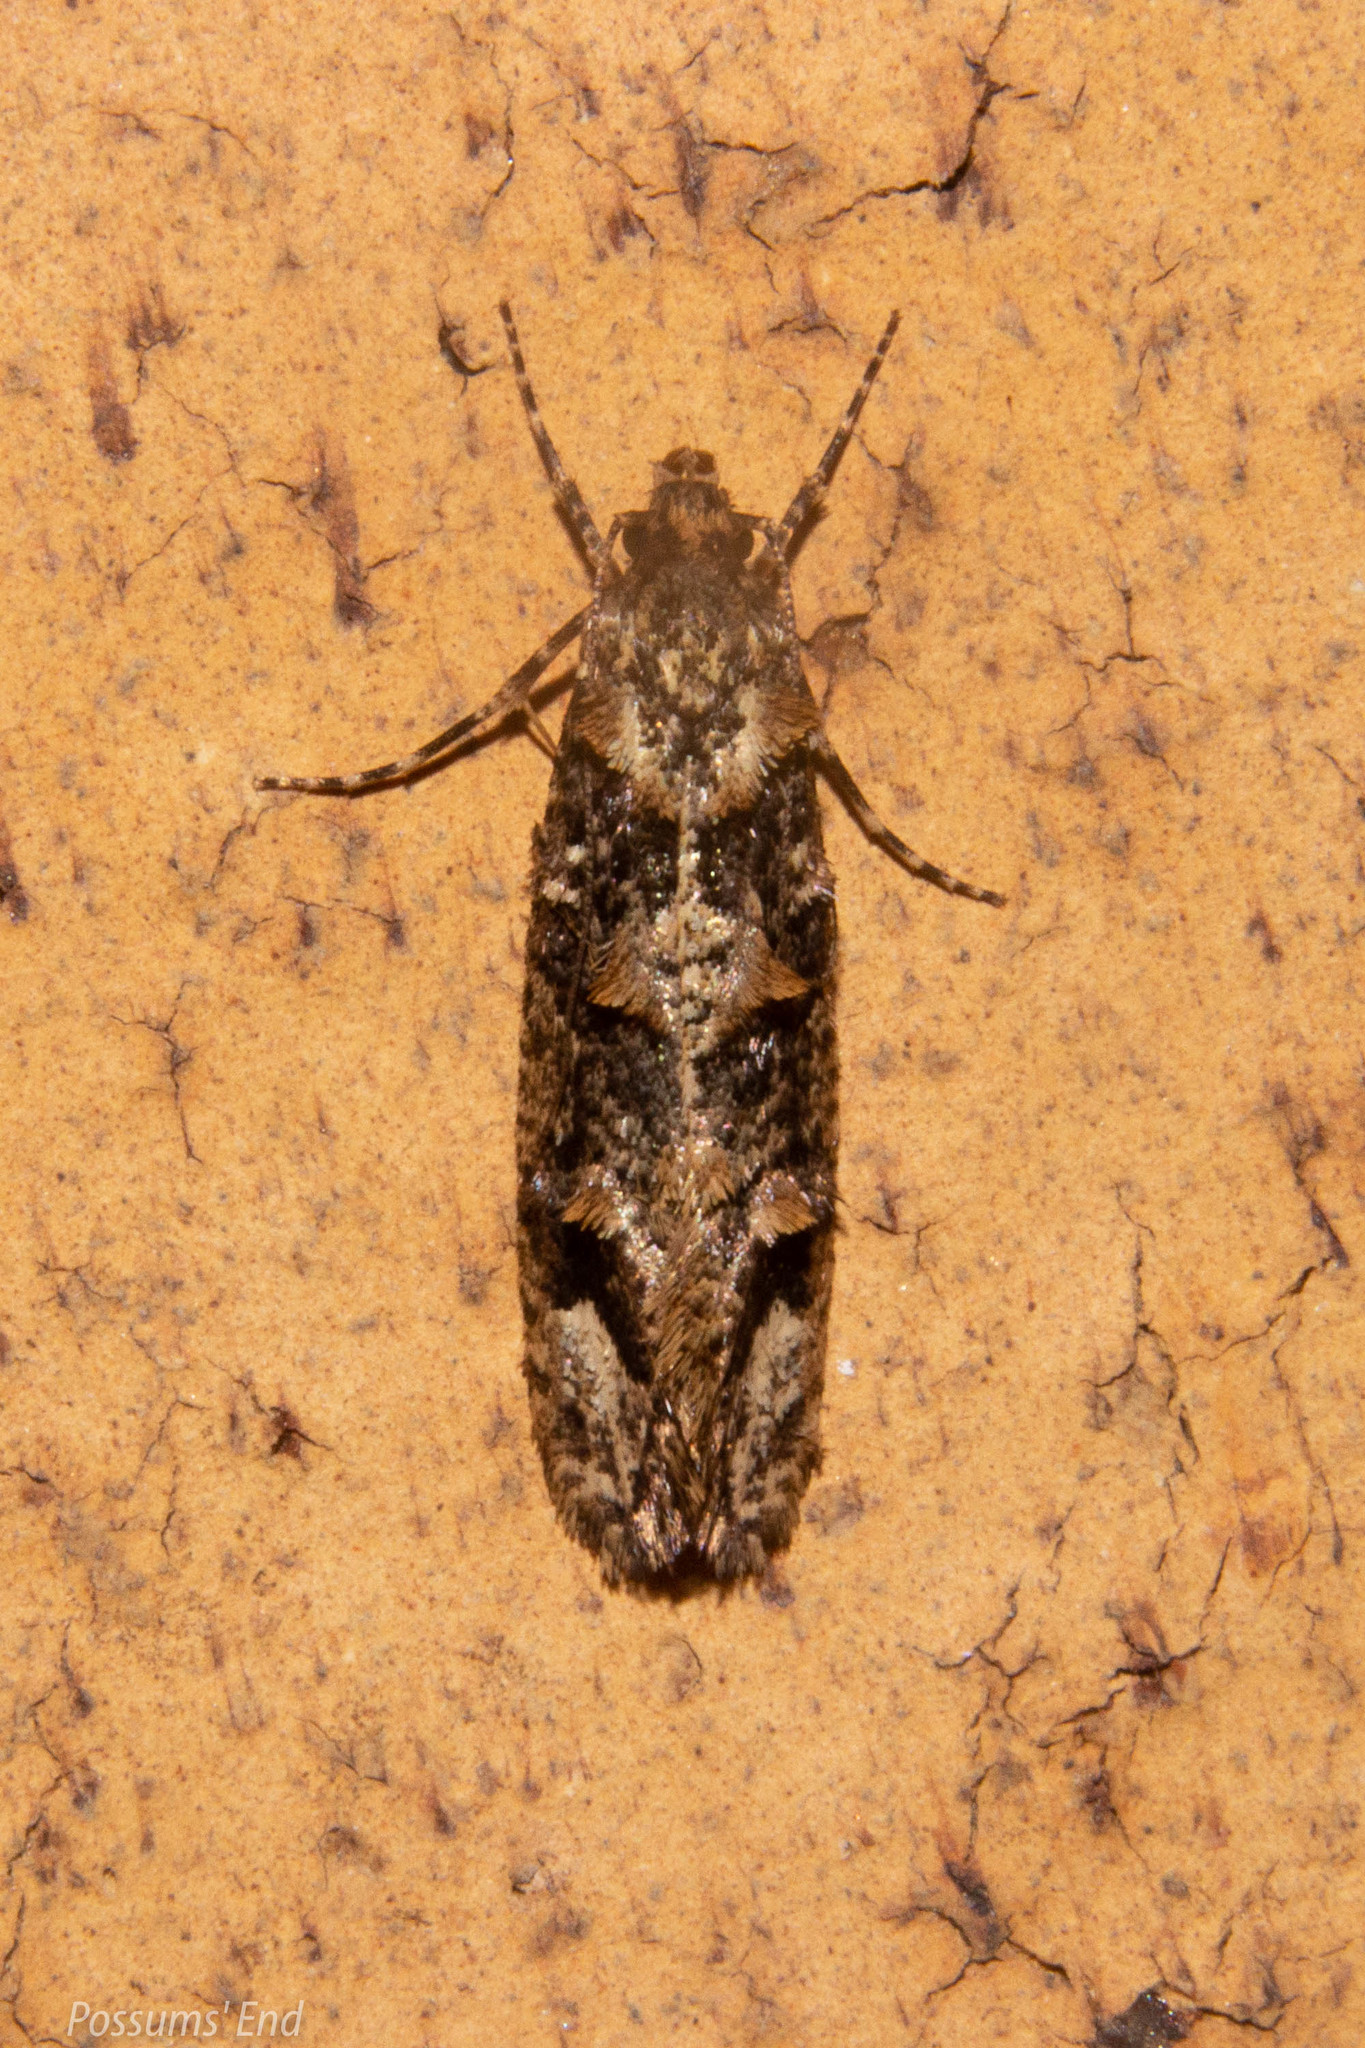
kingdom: Animalia
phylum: Arthropoda
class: Insecta
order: Lepidoptera
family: Tineidae
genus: Lysiphragma
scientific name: Lysiphragma epixyla
